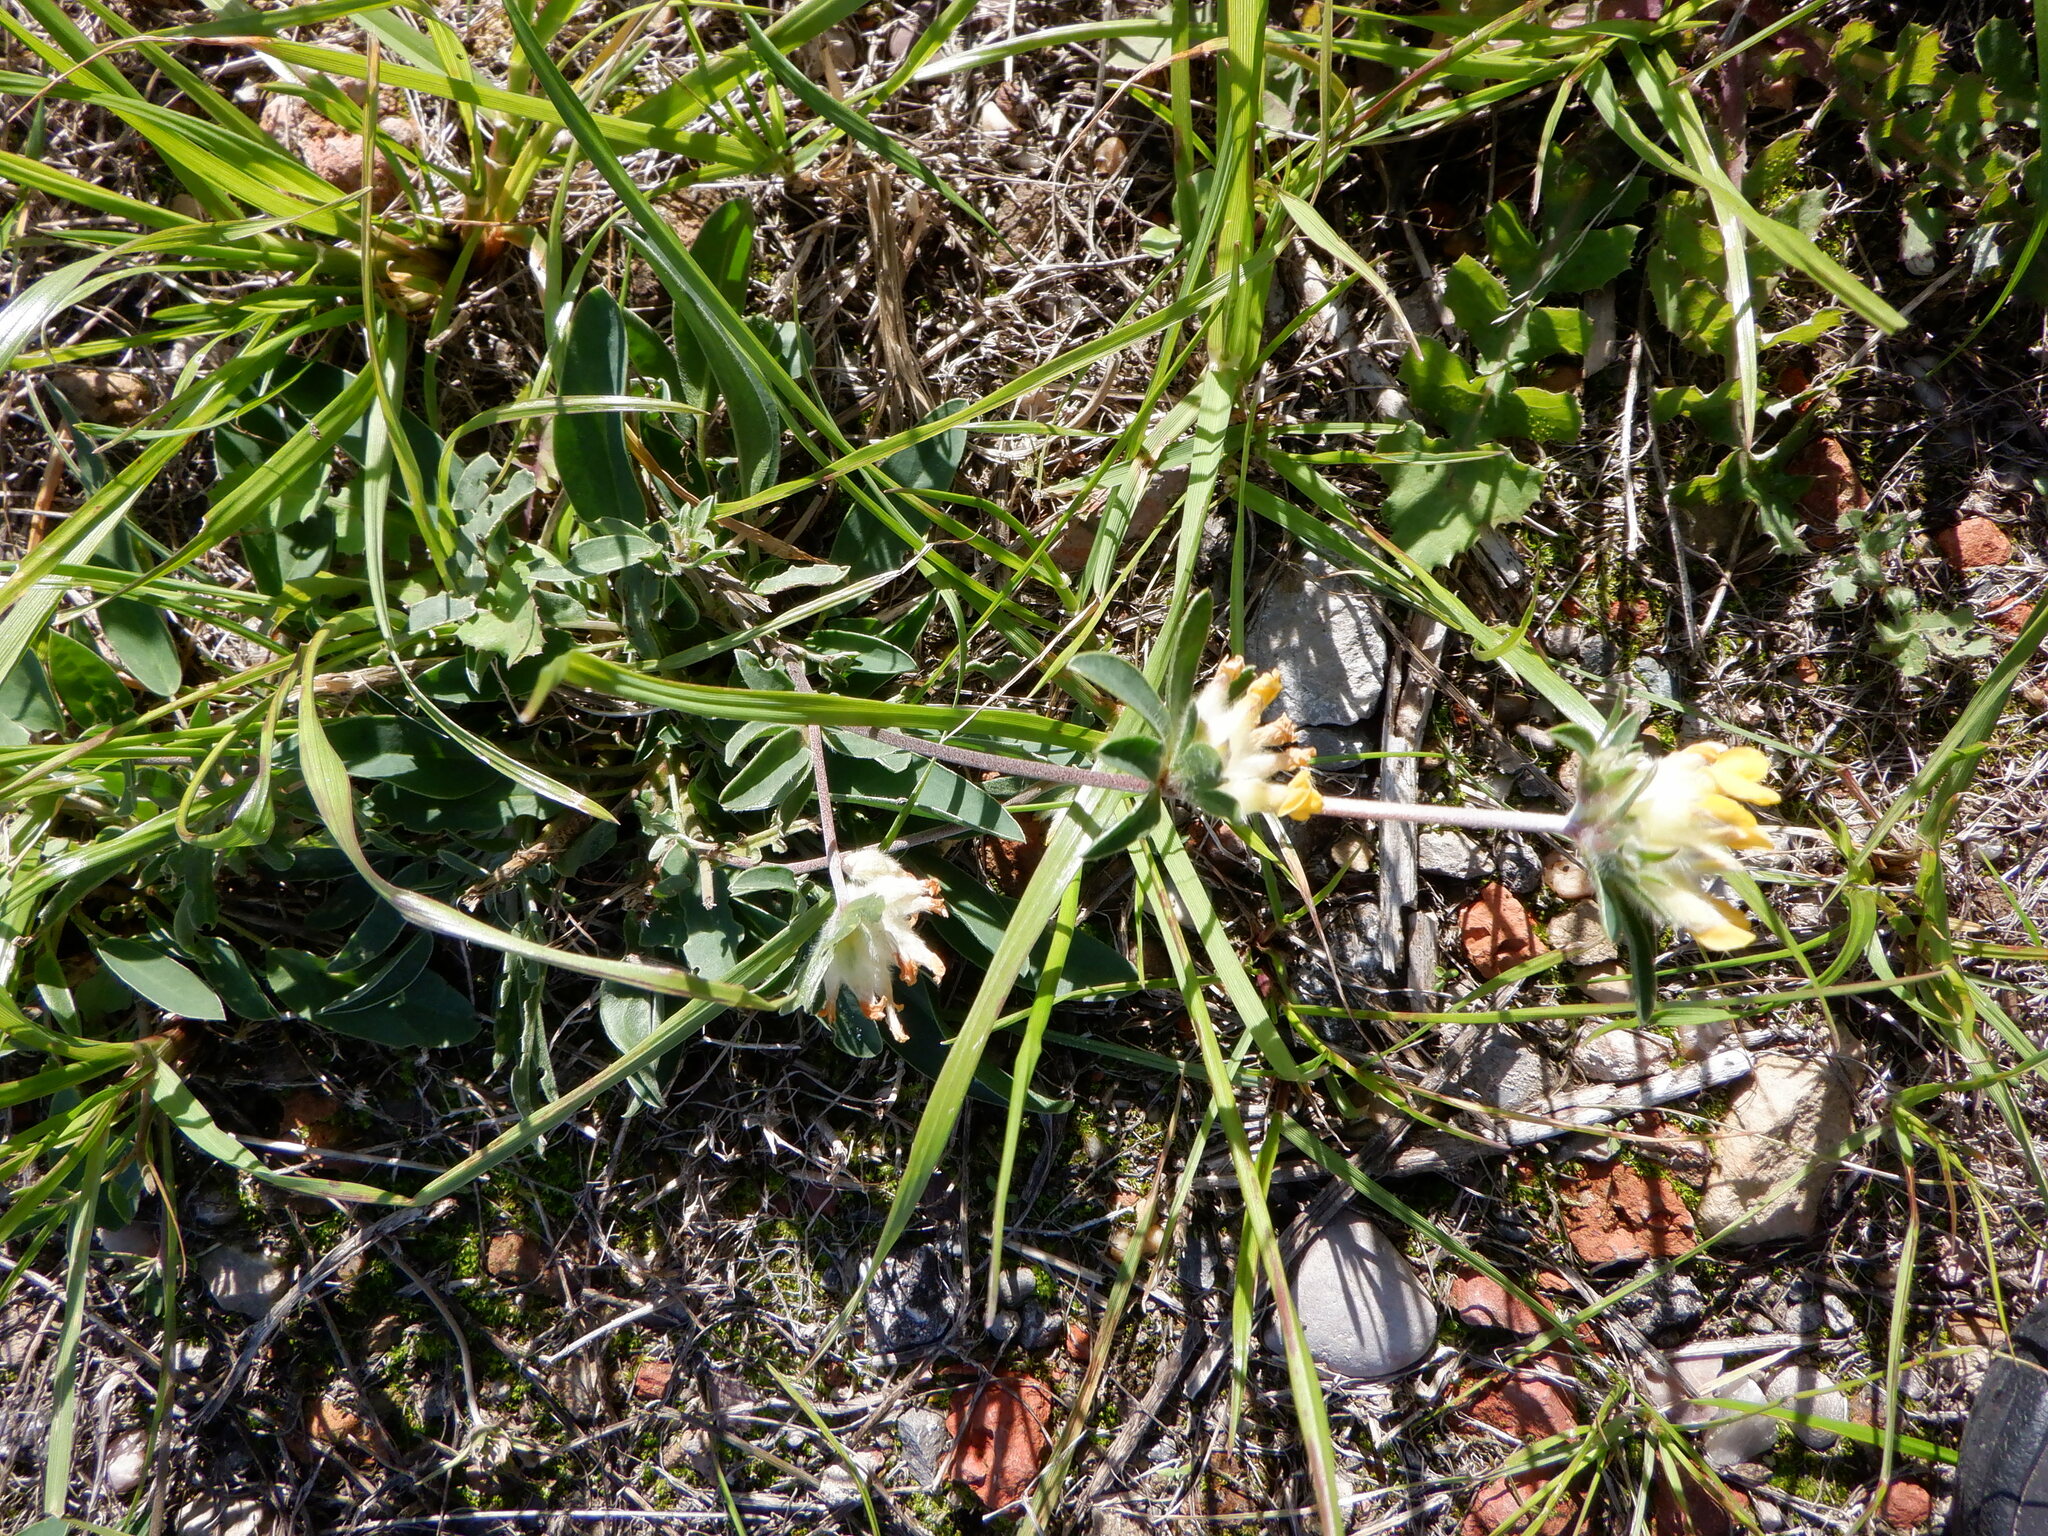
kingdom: Plantae
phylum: Tracheophyta
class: Magnoliopsida
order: Fabales
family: Fabaceae
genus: Anthyllis
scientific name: Anthyllis vulneraria
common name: Kidney vetch
